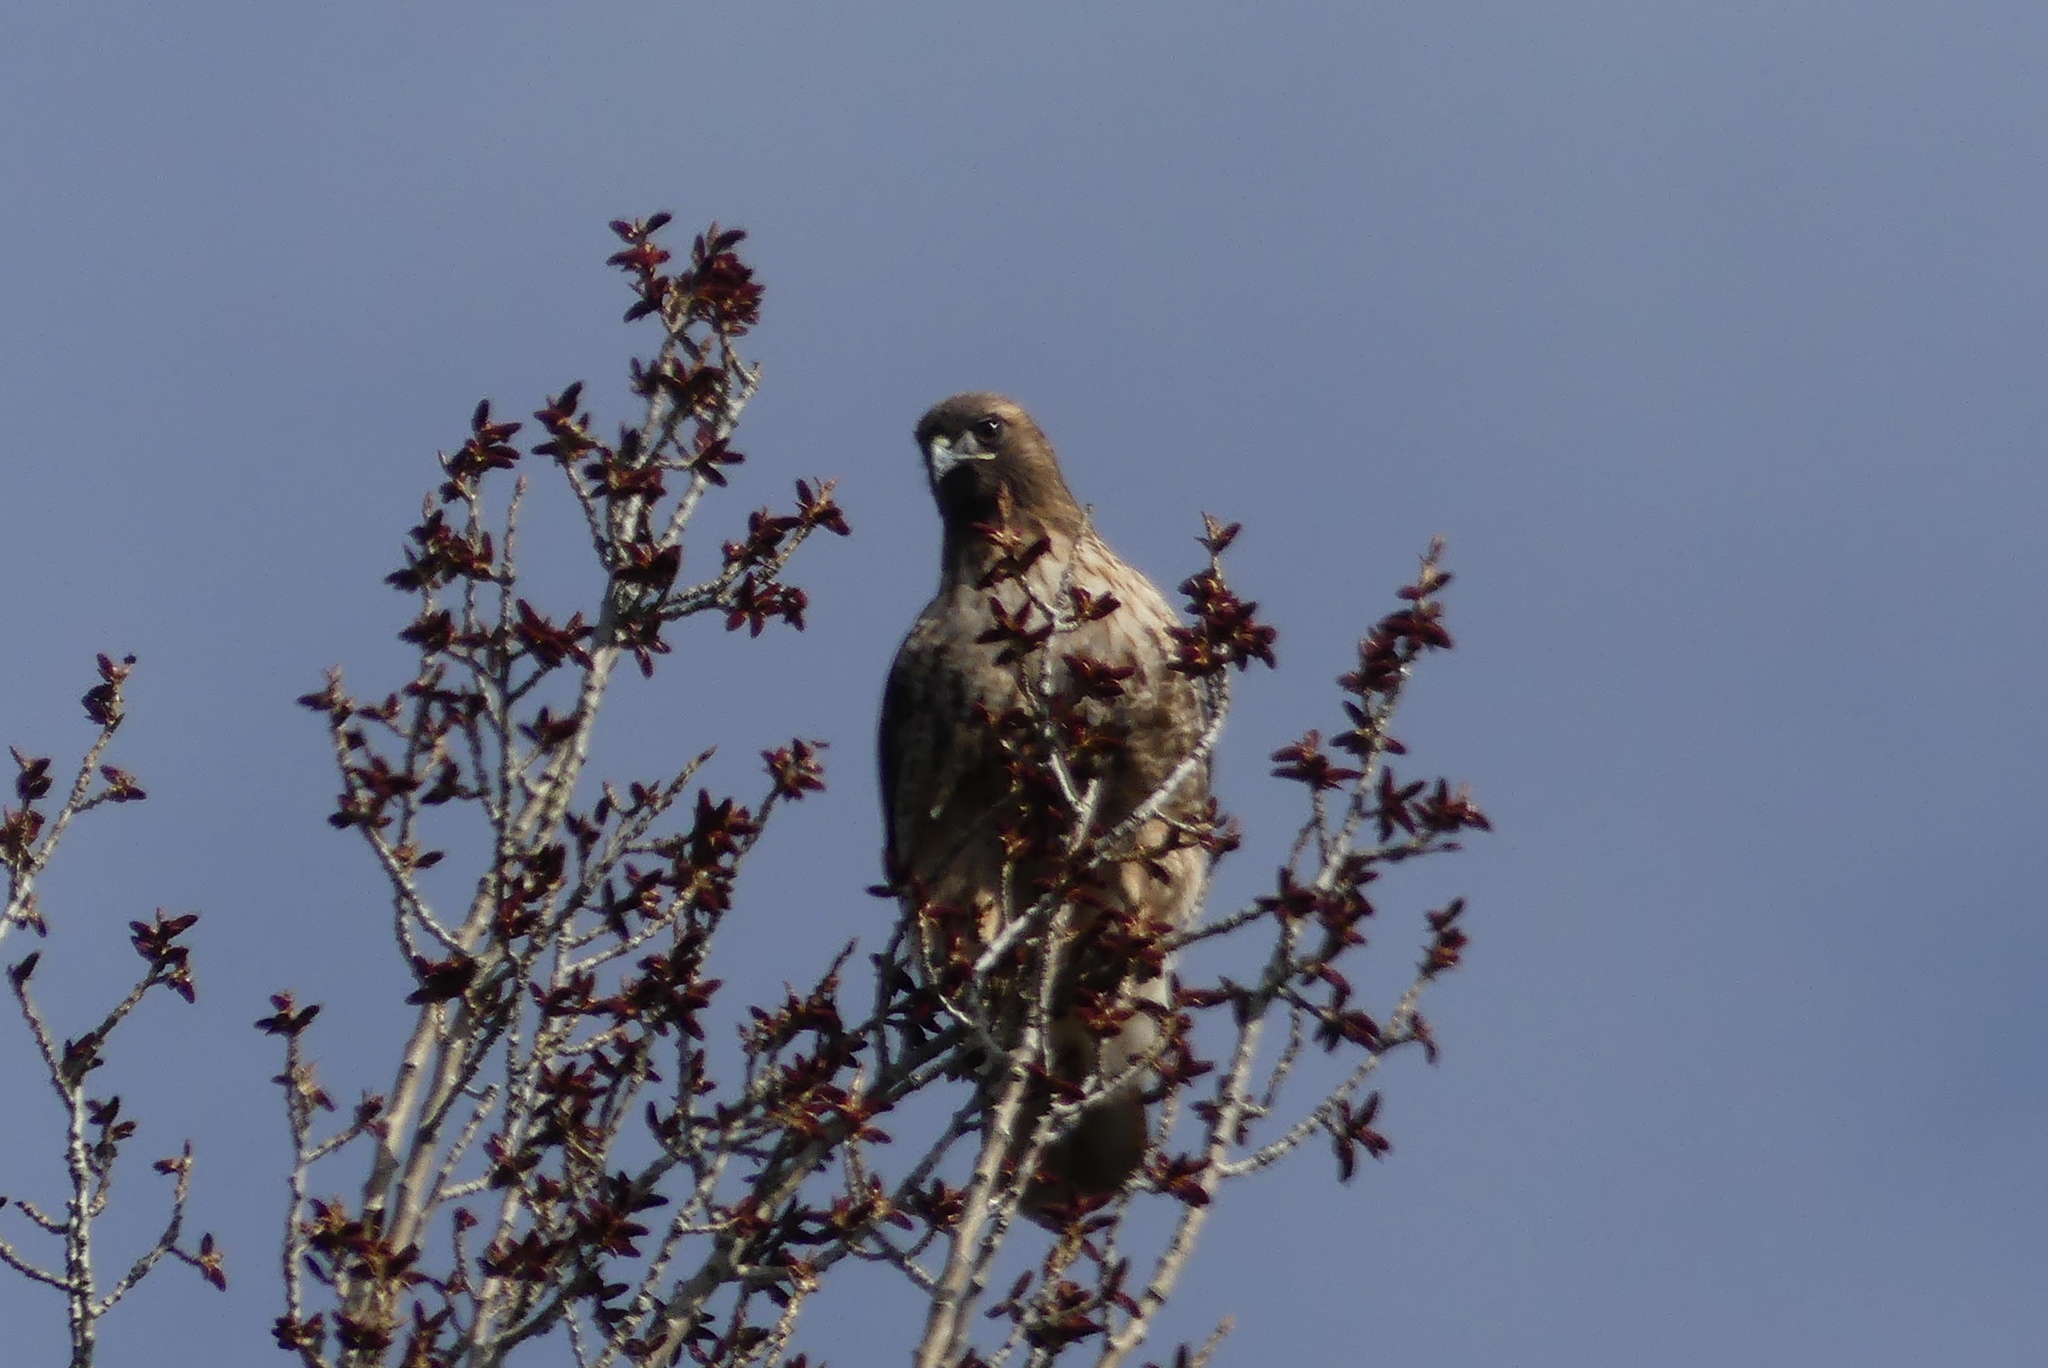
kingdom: Animalia
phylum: Chordata
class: Aves
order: Accipitriformes
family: Accipitridae
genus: Buteo
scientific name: Buteo jamaicensis
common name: Red-tailed hawk
